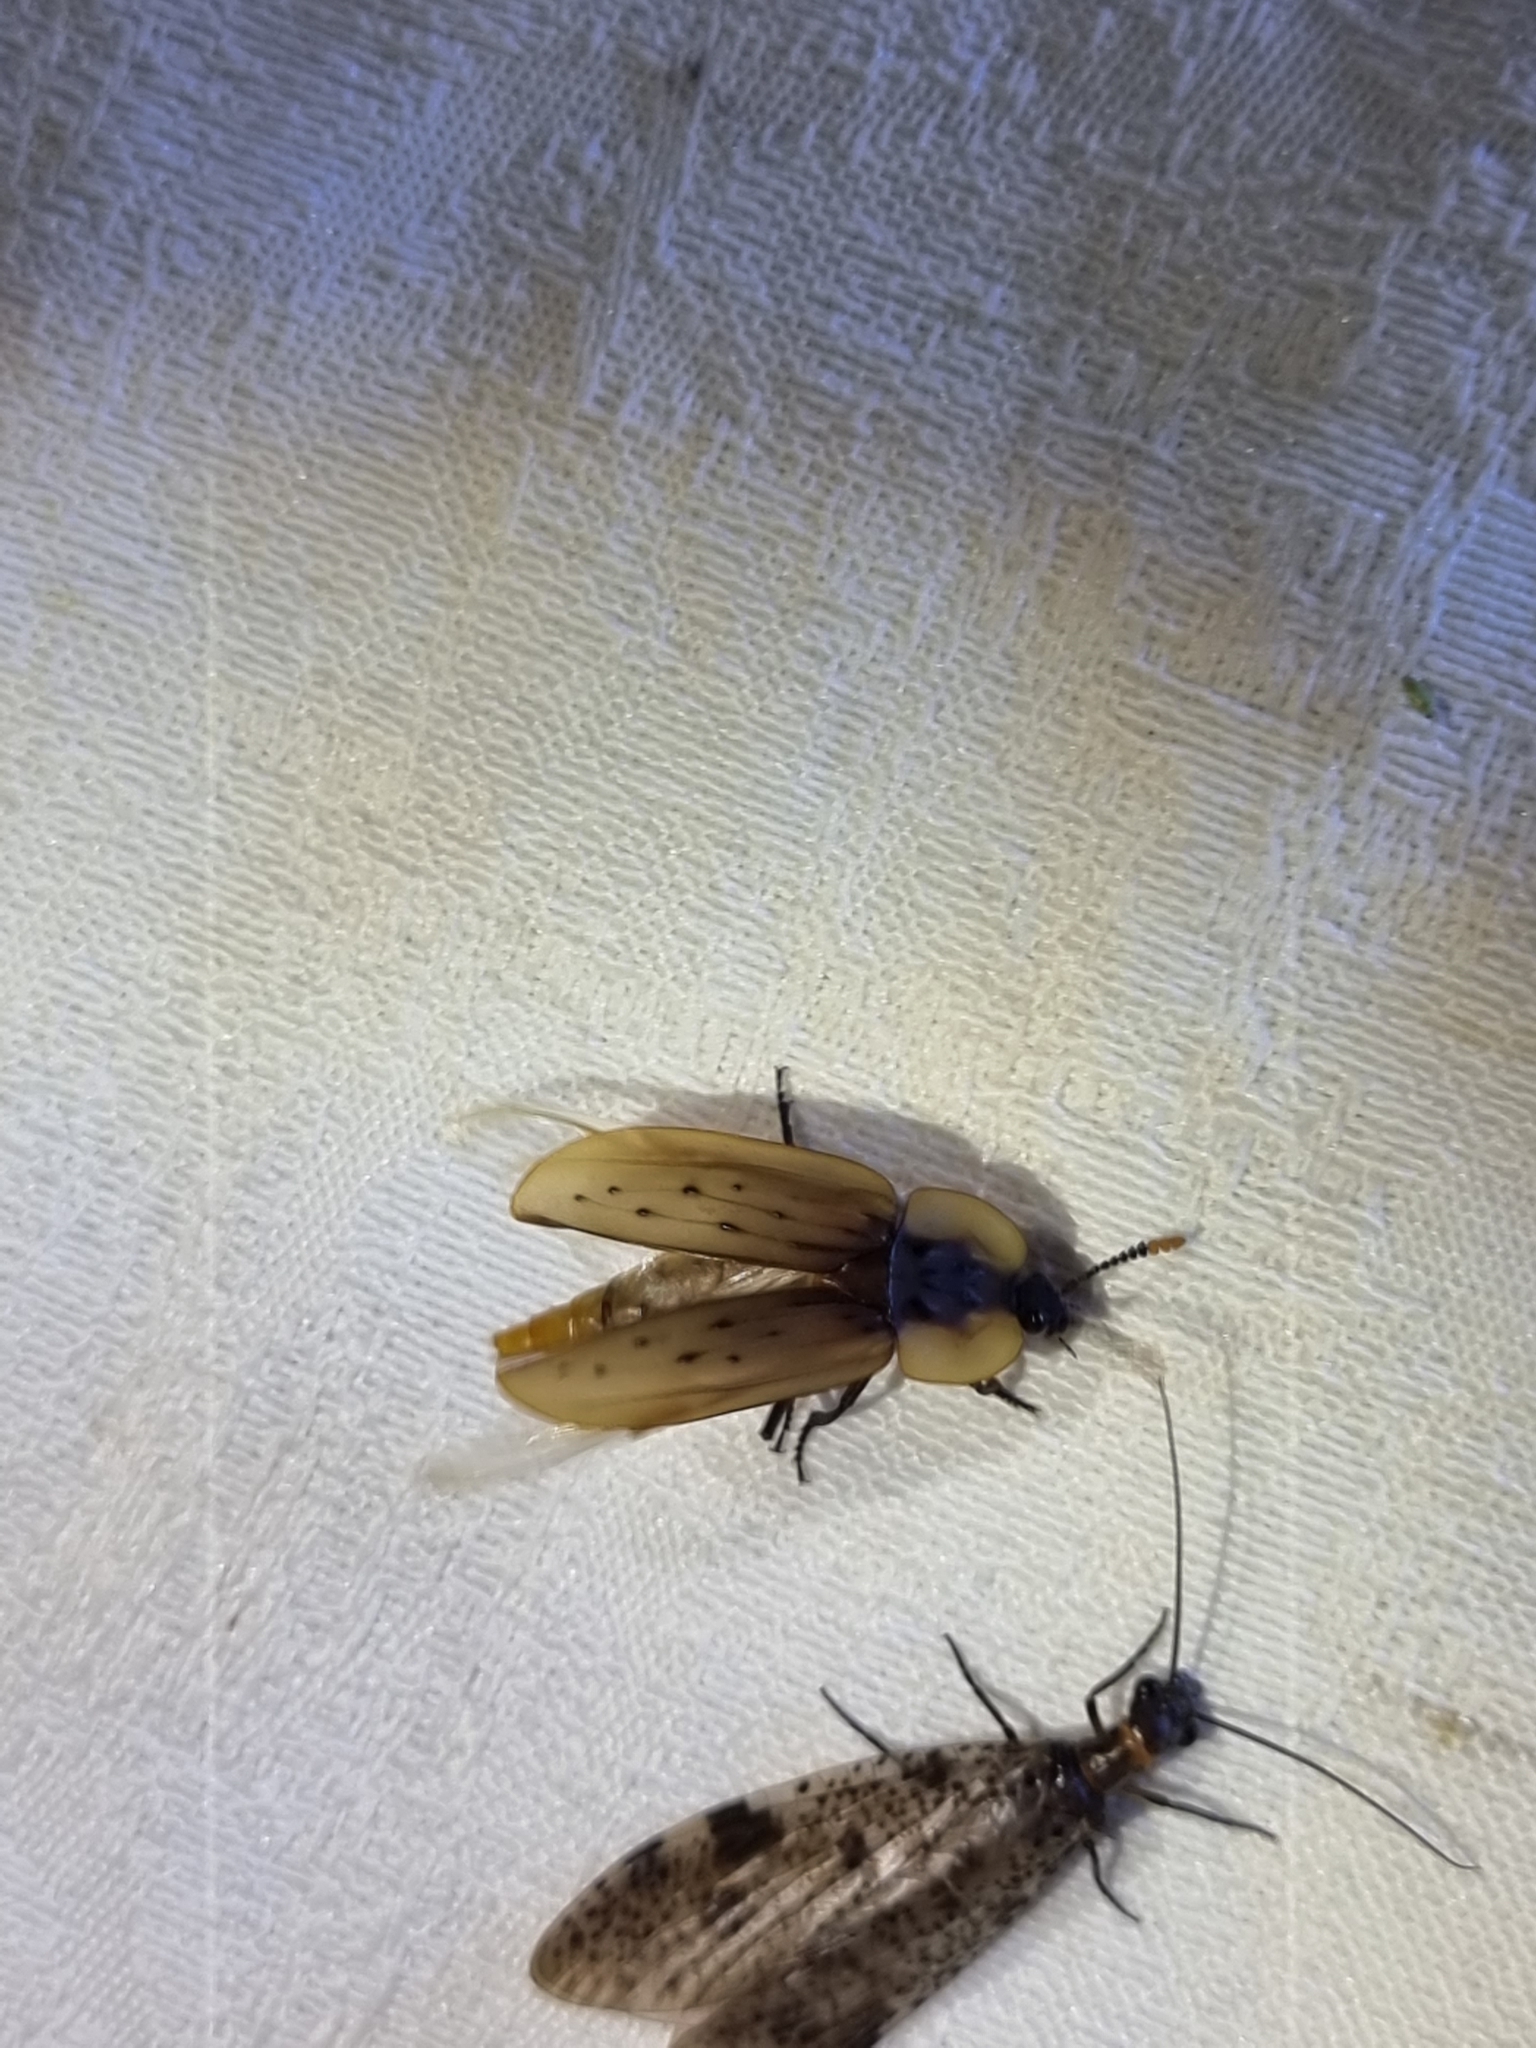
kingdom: Animalia
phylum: Arthropoda
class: Insecta
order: Coleoptera
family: Staphylinidae
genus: Ptomaphila
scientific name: Ptomaphila perlata
